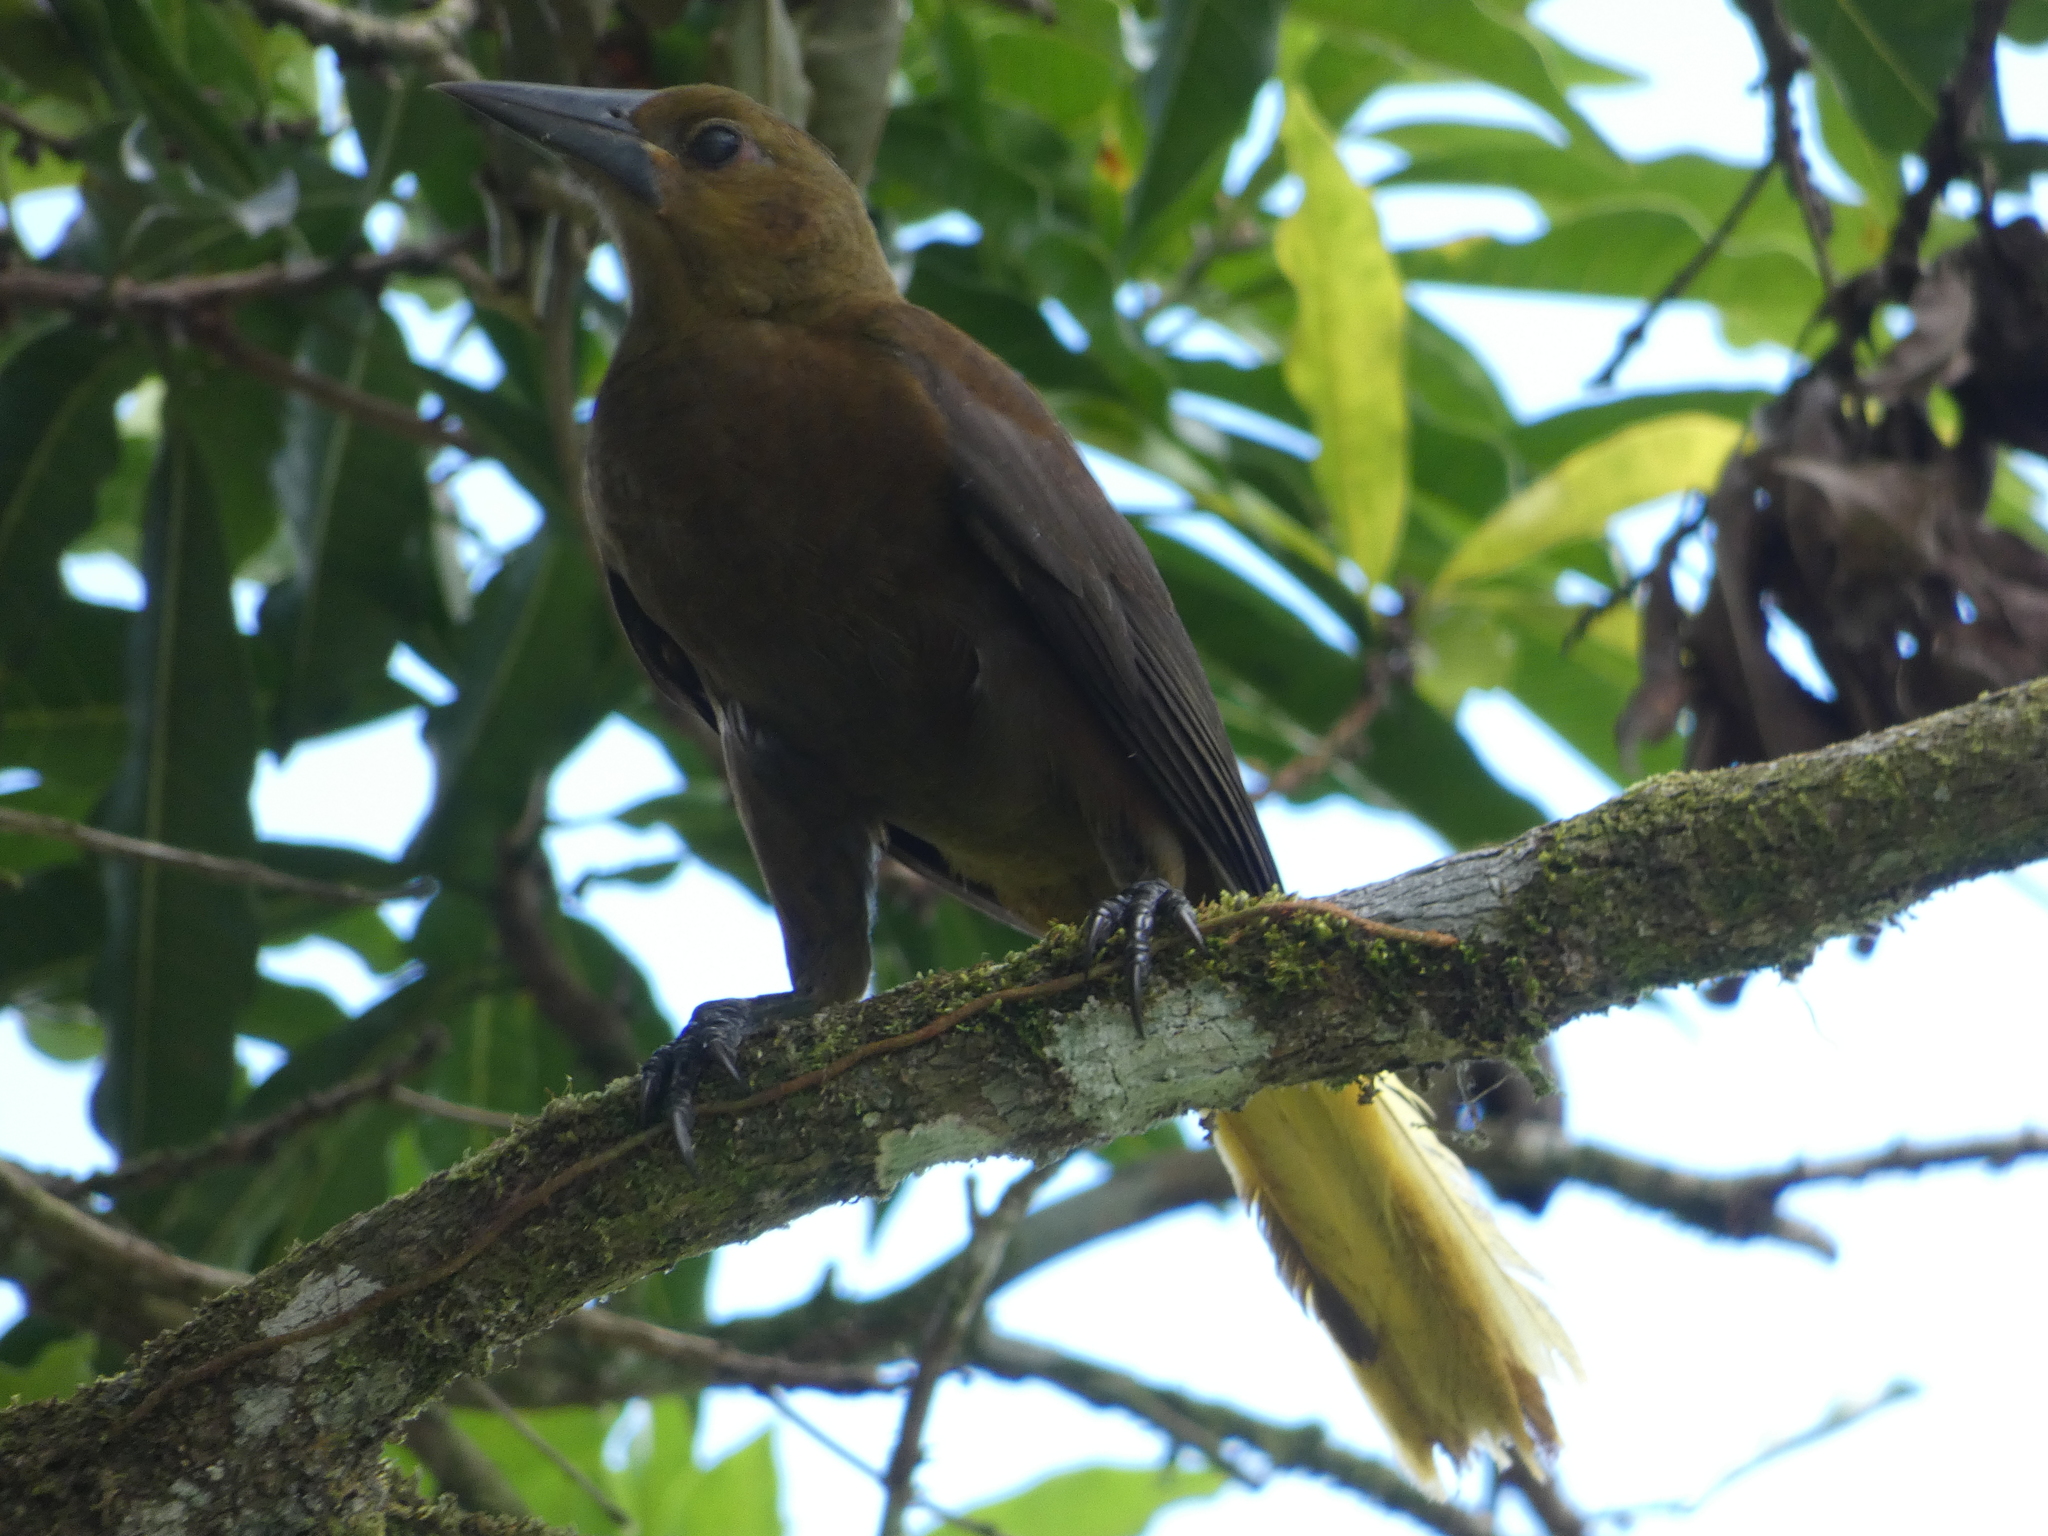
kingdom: Animalia
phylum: Chordata
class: Aves
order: Passeriformes
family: Icteridae
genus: Psarocolius
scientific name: Psarocolius angustifrons
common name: Russet-backed oropendola
